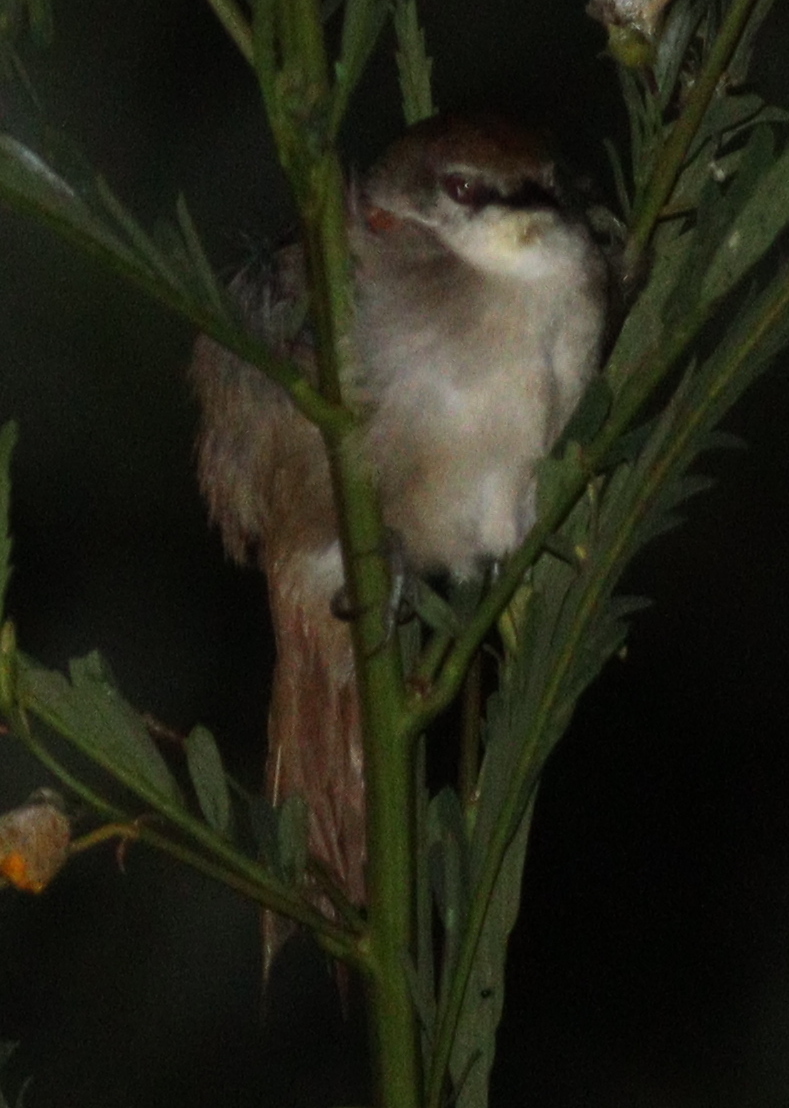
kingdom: Animalia
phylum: Chordata
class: Aves
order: Passeriformes
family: Furnariidae
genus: Certhiaxis
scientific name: Certhiaxis cinnamomeus
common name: Yellow-chinned spinetail
